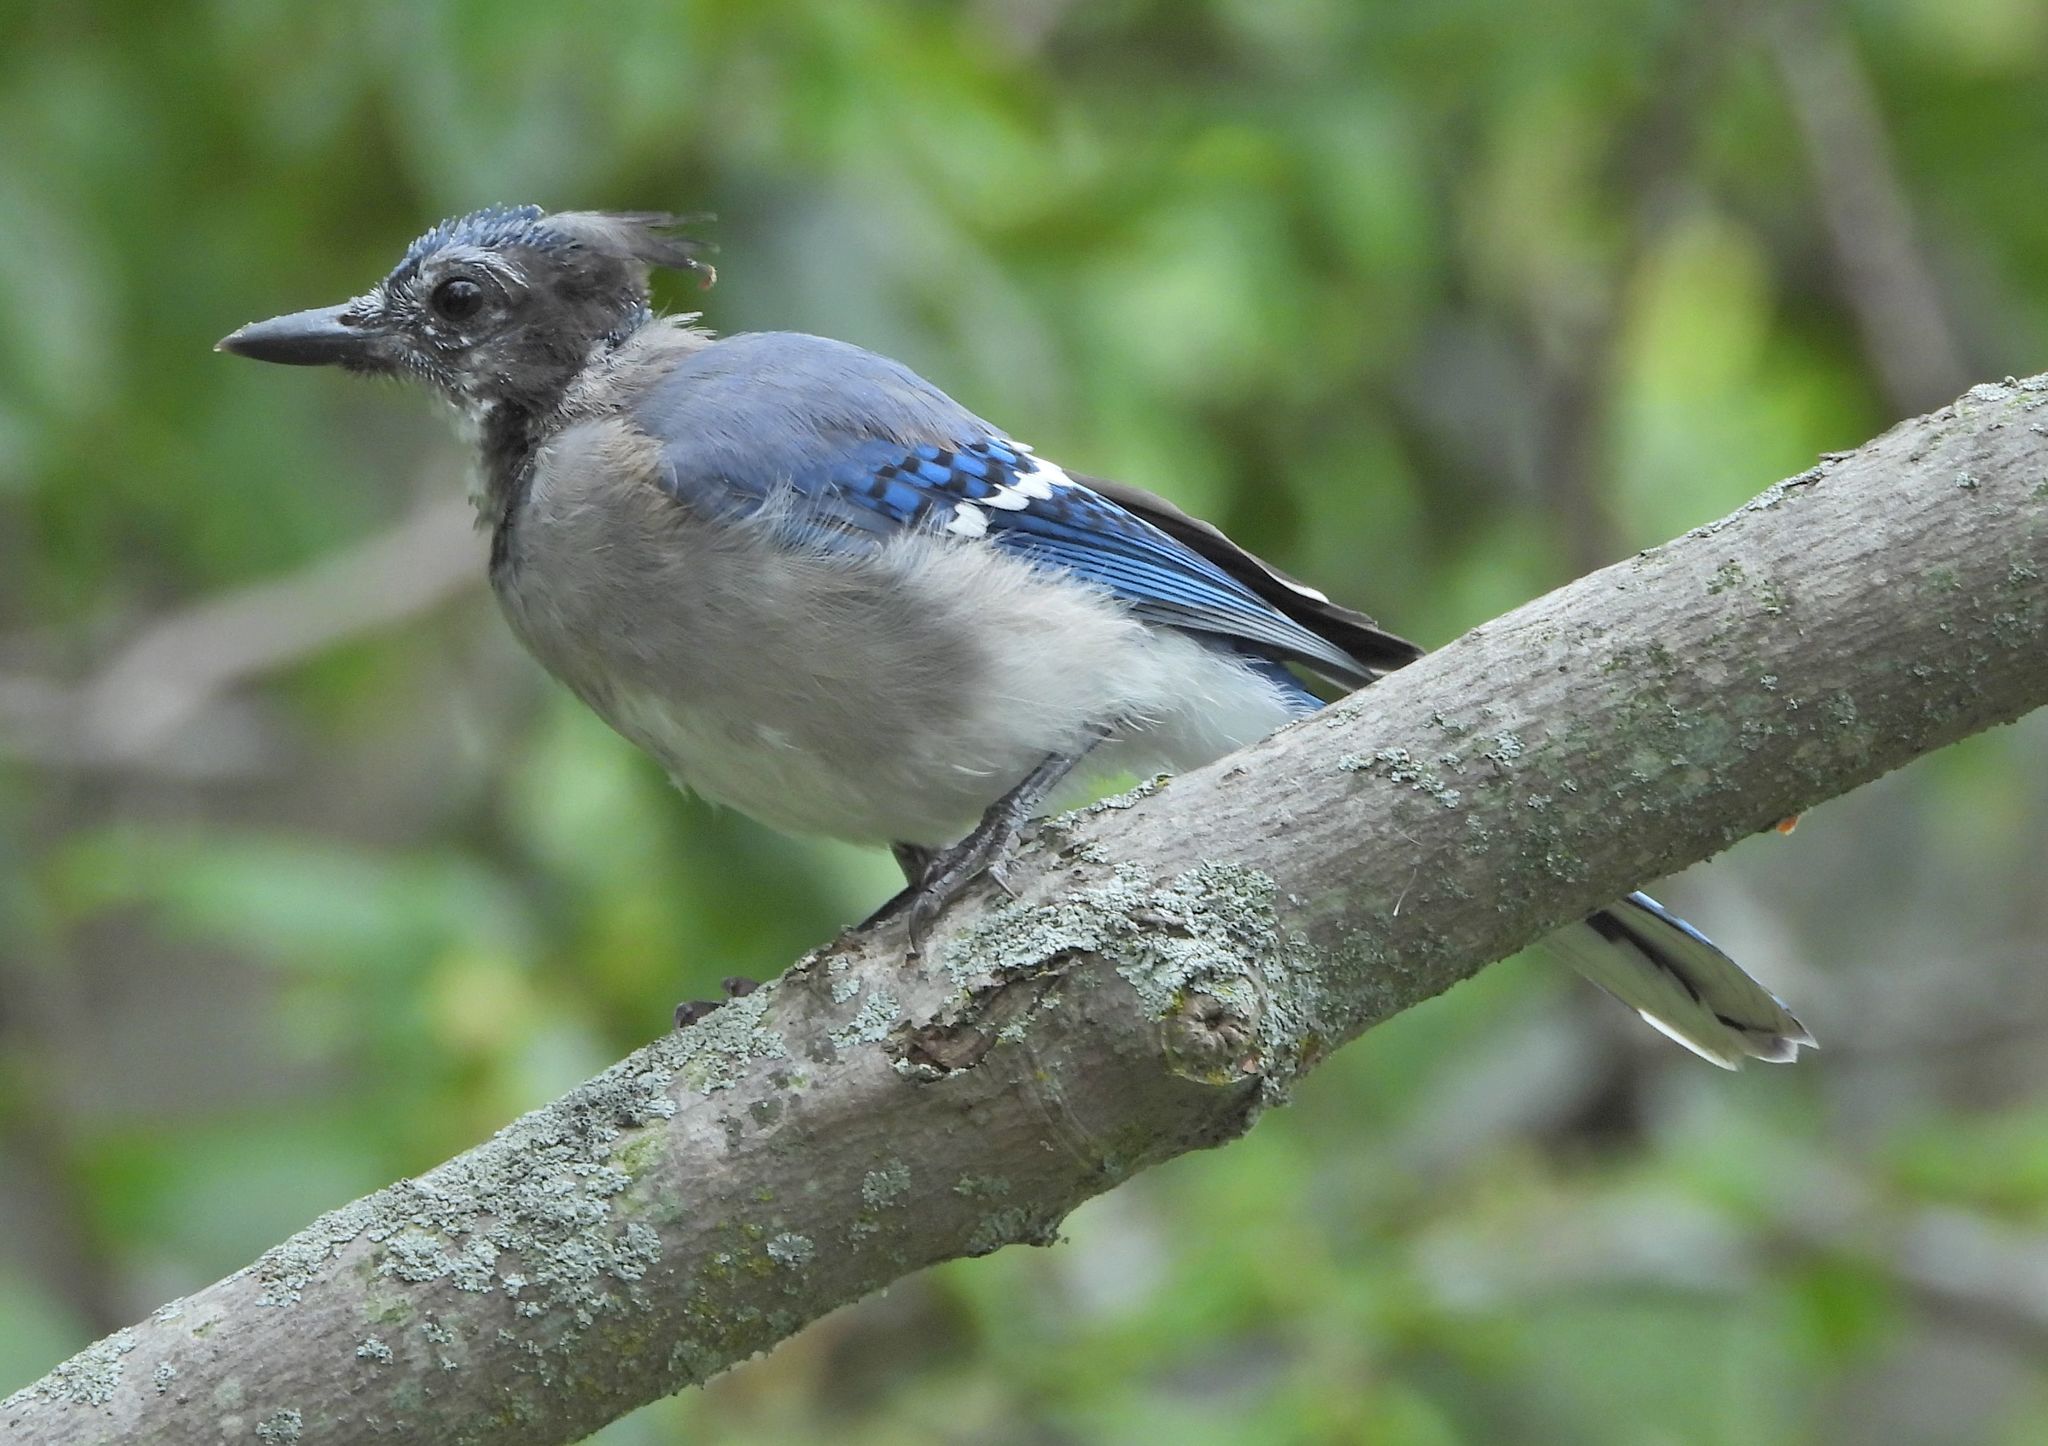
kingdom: Animalia
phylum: Chordata
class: Aves
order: Passeriformes
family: Corvidae
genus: Cyanocitta
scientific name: Cyanocitta cristata
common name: Blue jay
